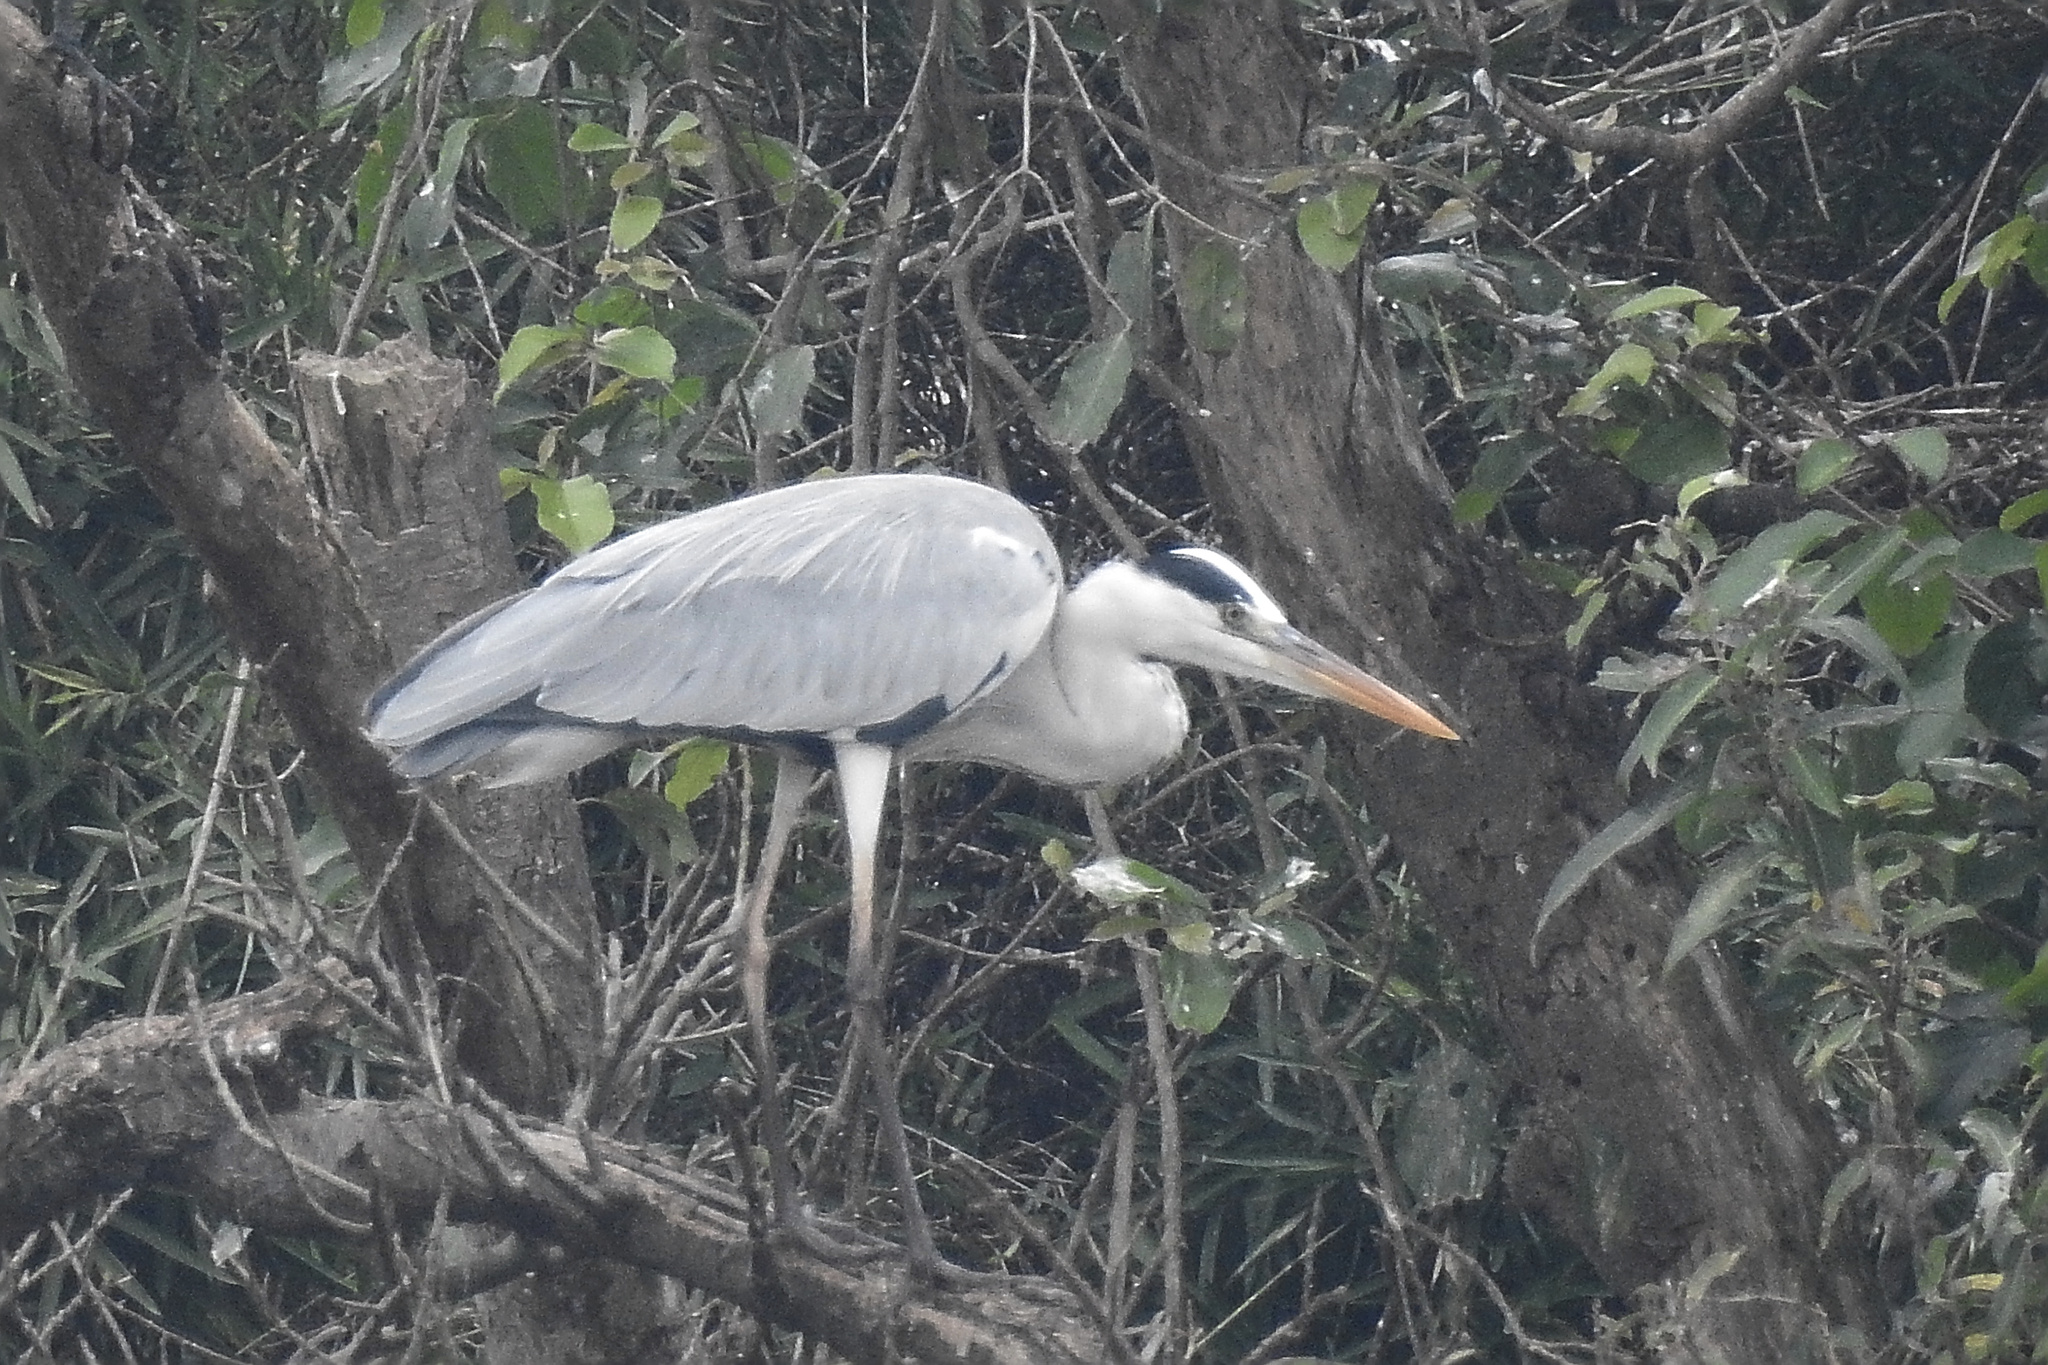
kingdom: Animalia
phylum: Chordata
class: Aves
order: Pelecaniformes
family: Ardeidae
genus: Ardea
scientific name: Ardea cinerea
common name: Grey heron
